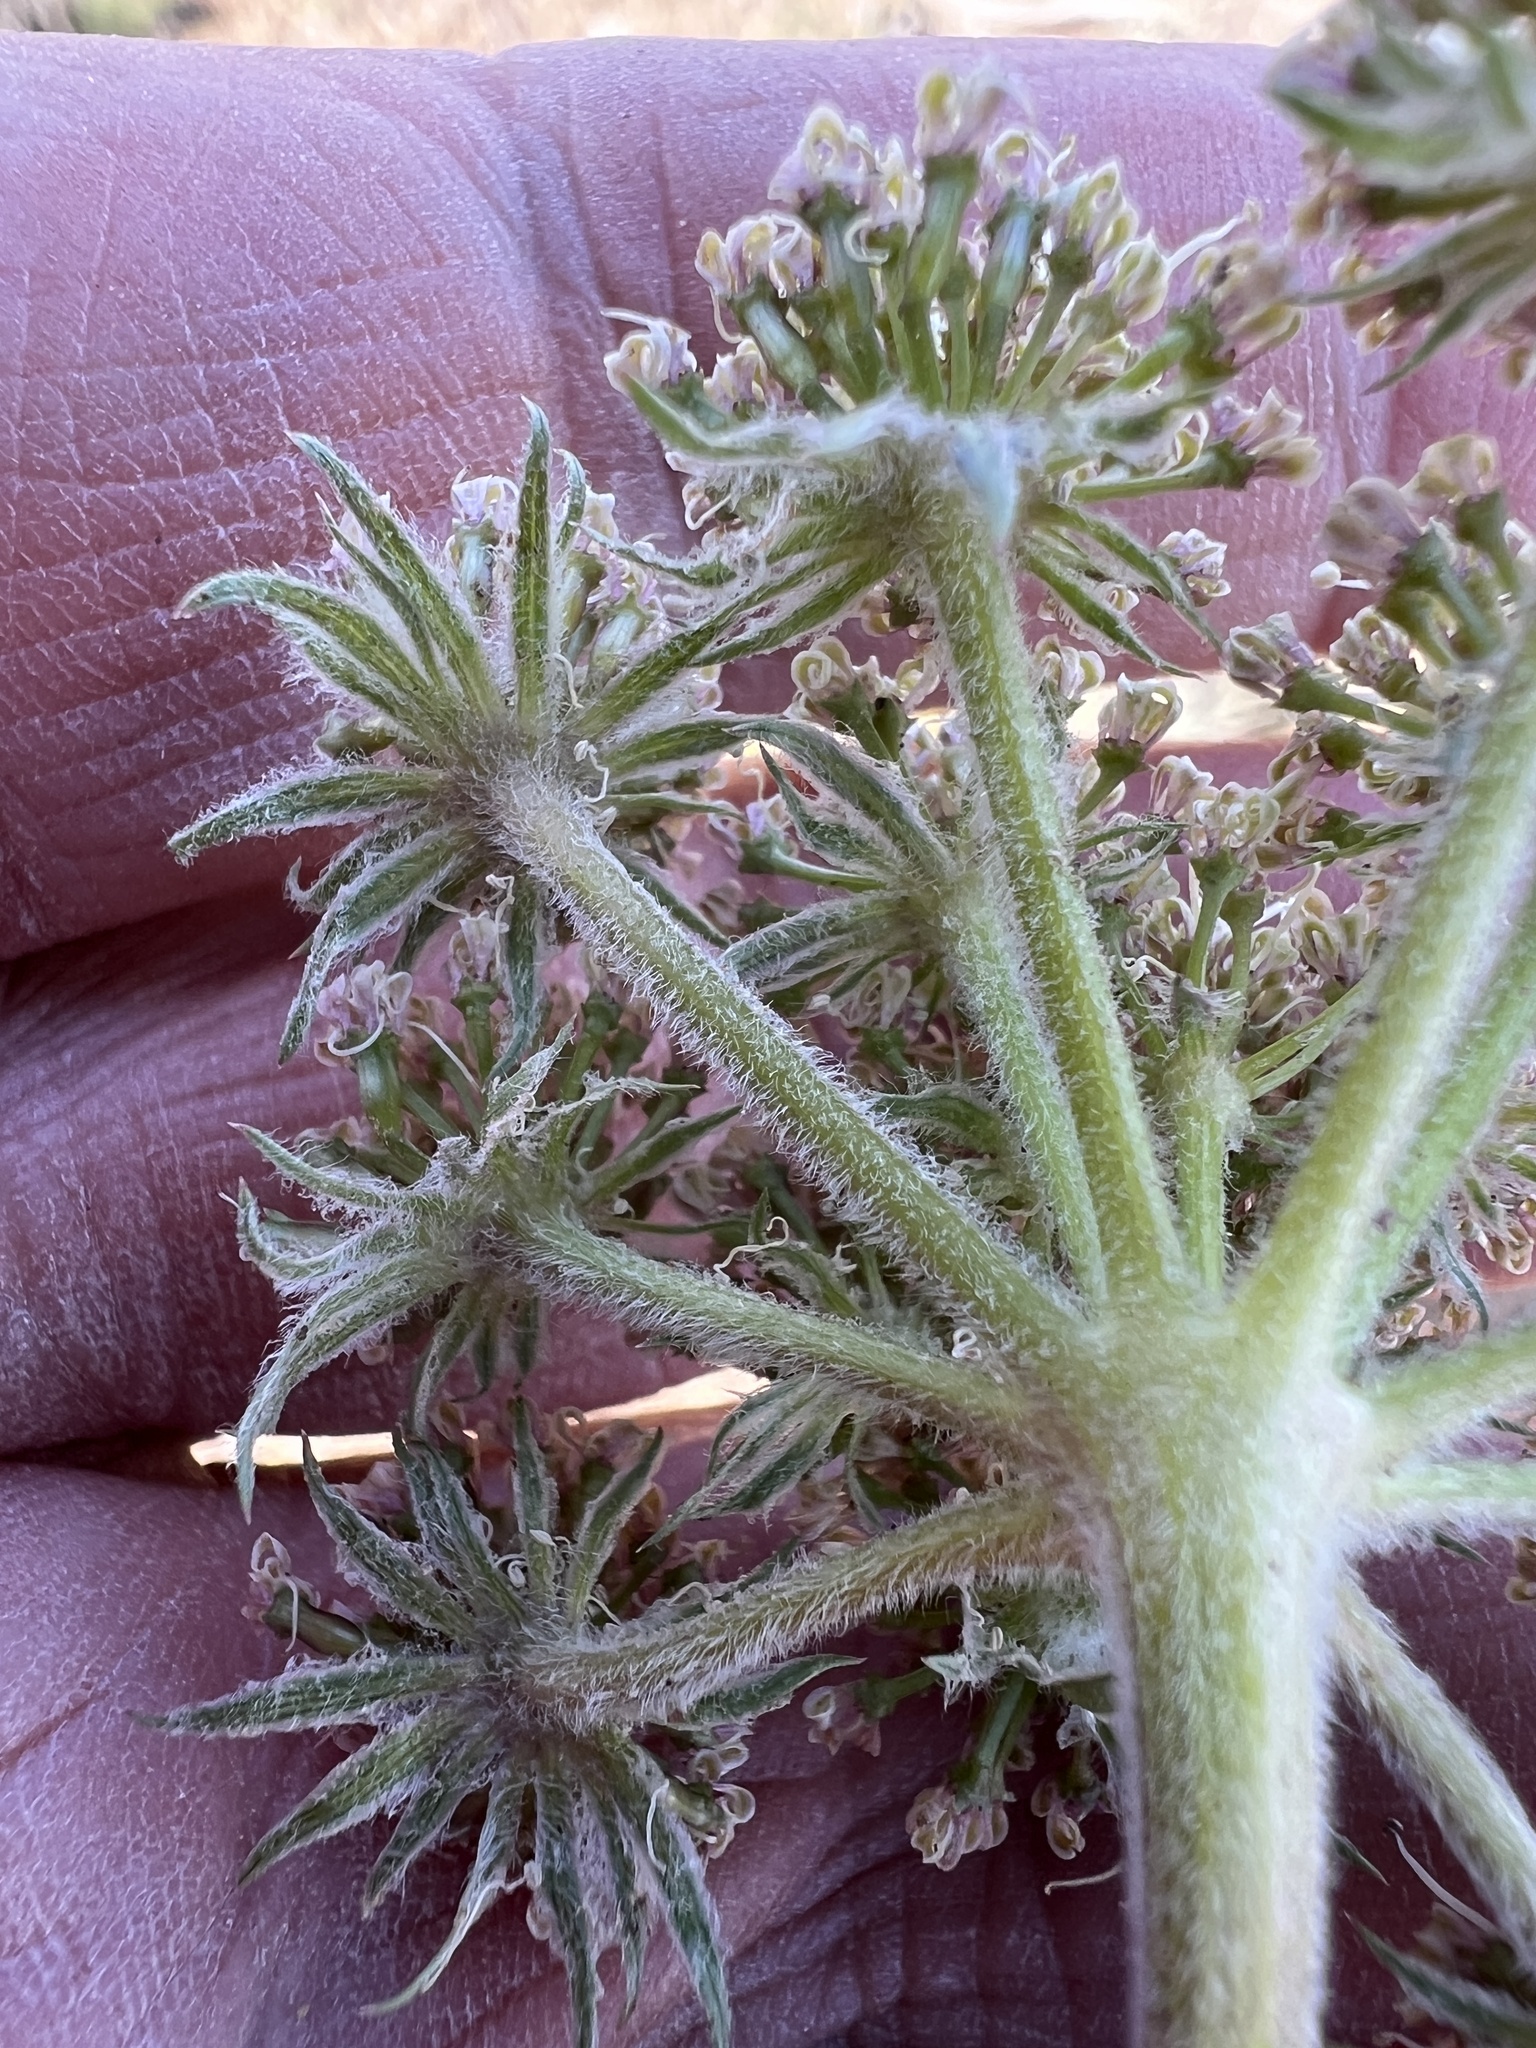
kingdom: Plantae
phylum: Tracheophyta
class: Magnoliopsida
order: Apiales
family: Apiaceae
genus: Lomatium
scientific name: Lomatium macrocarpum
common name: Big-seed biscuitroot
